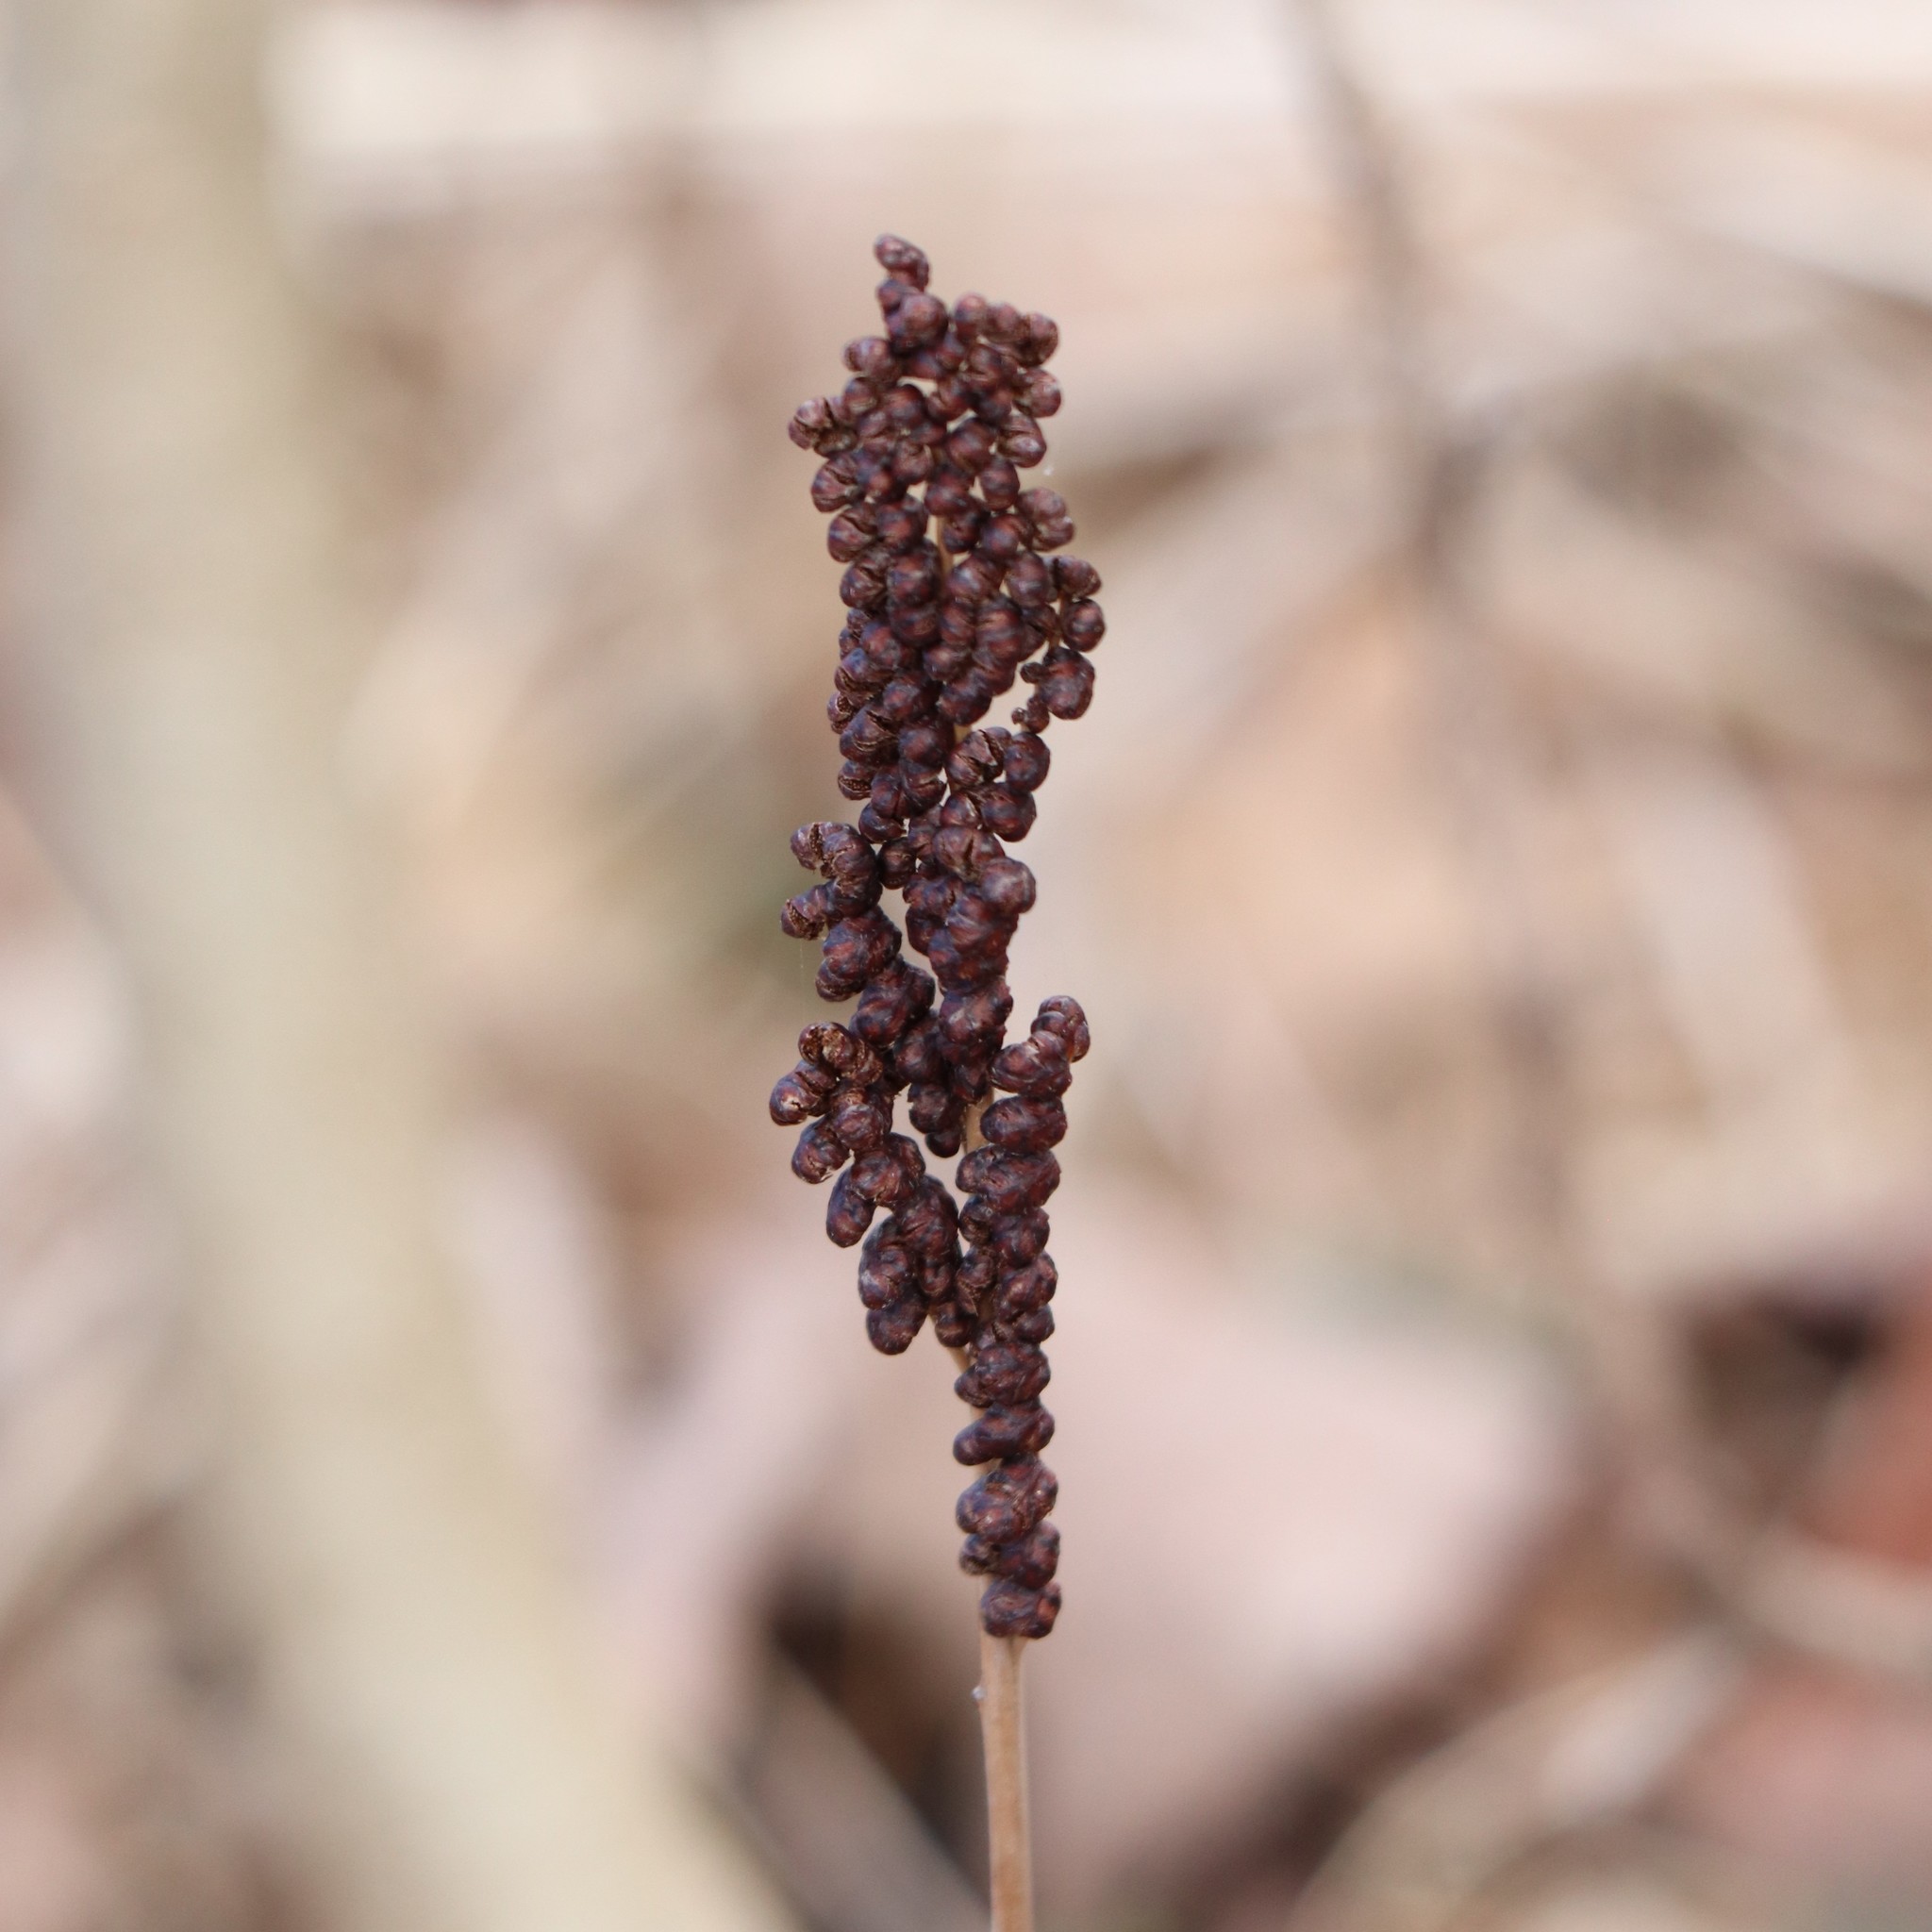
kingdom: Plantae
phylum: Tracheophyta
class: Polypodiopsida
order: Polypodiales
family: Onocleaceae
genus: Onoclea
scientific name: Onoclea sensibilis
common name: Sensitive fern
